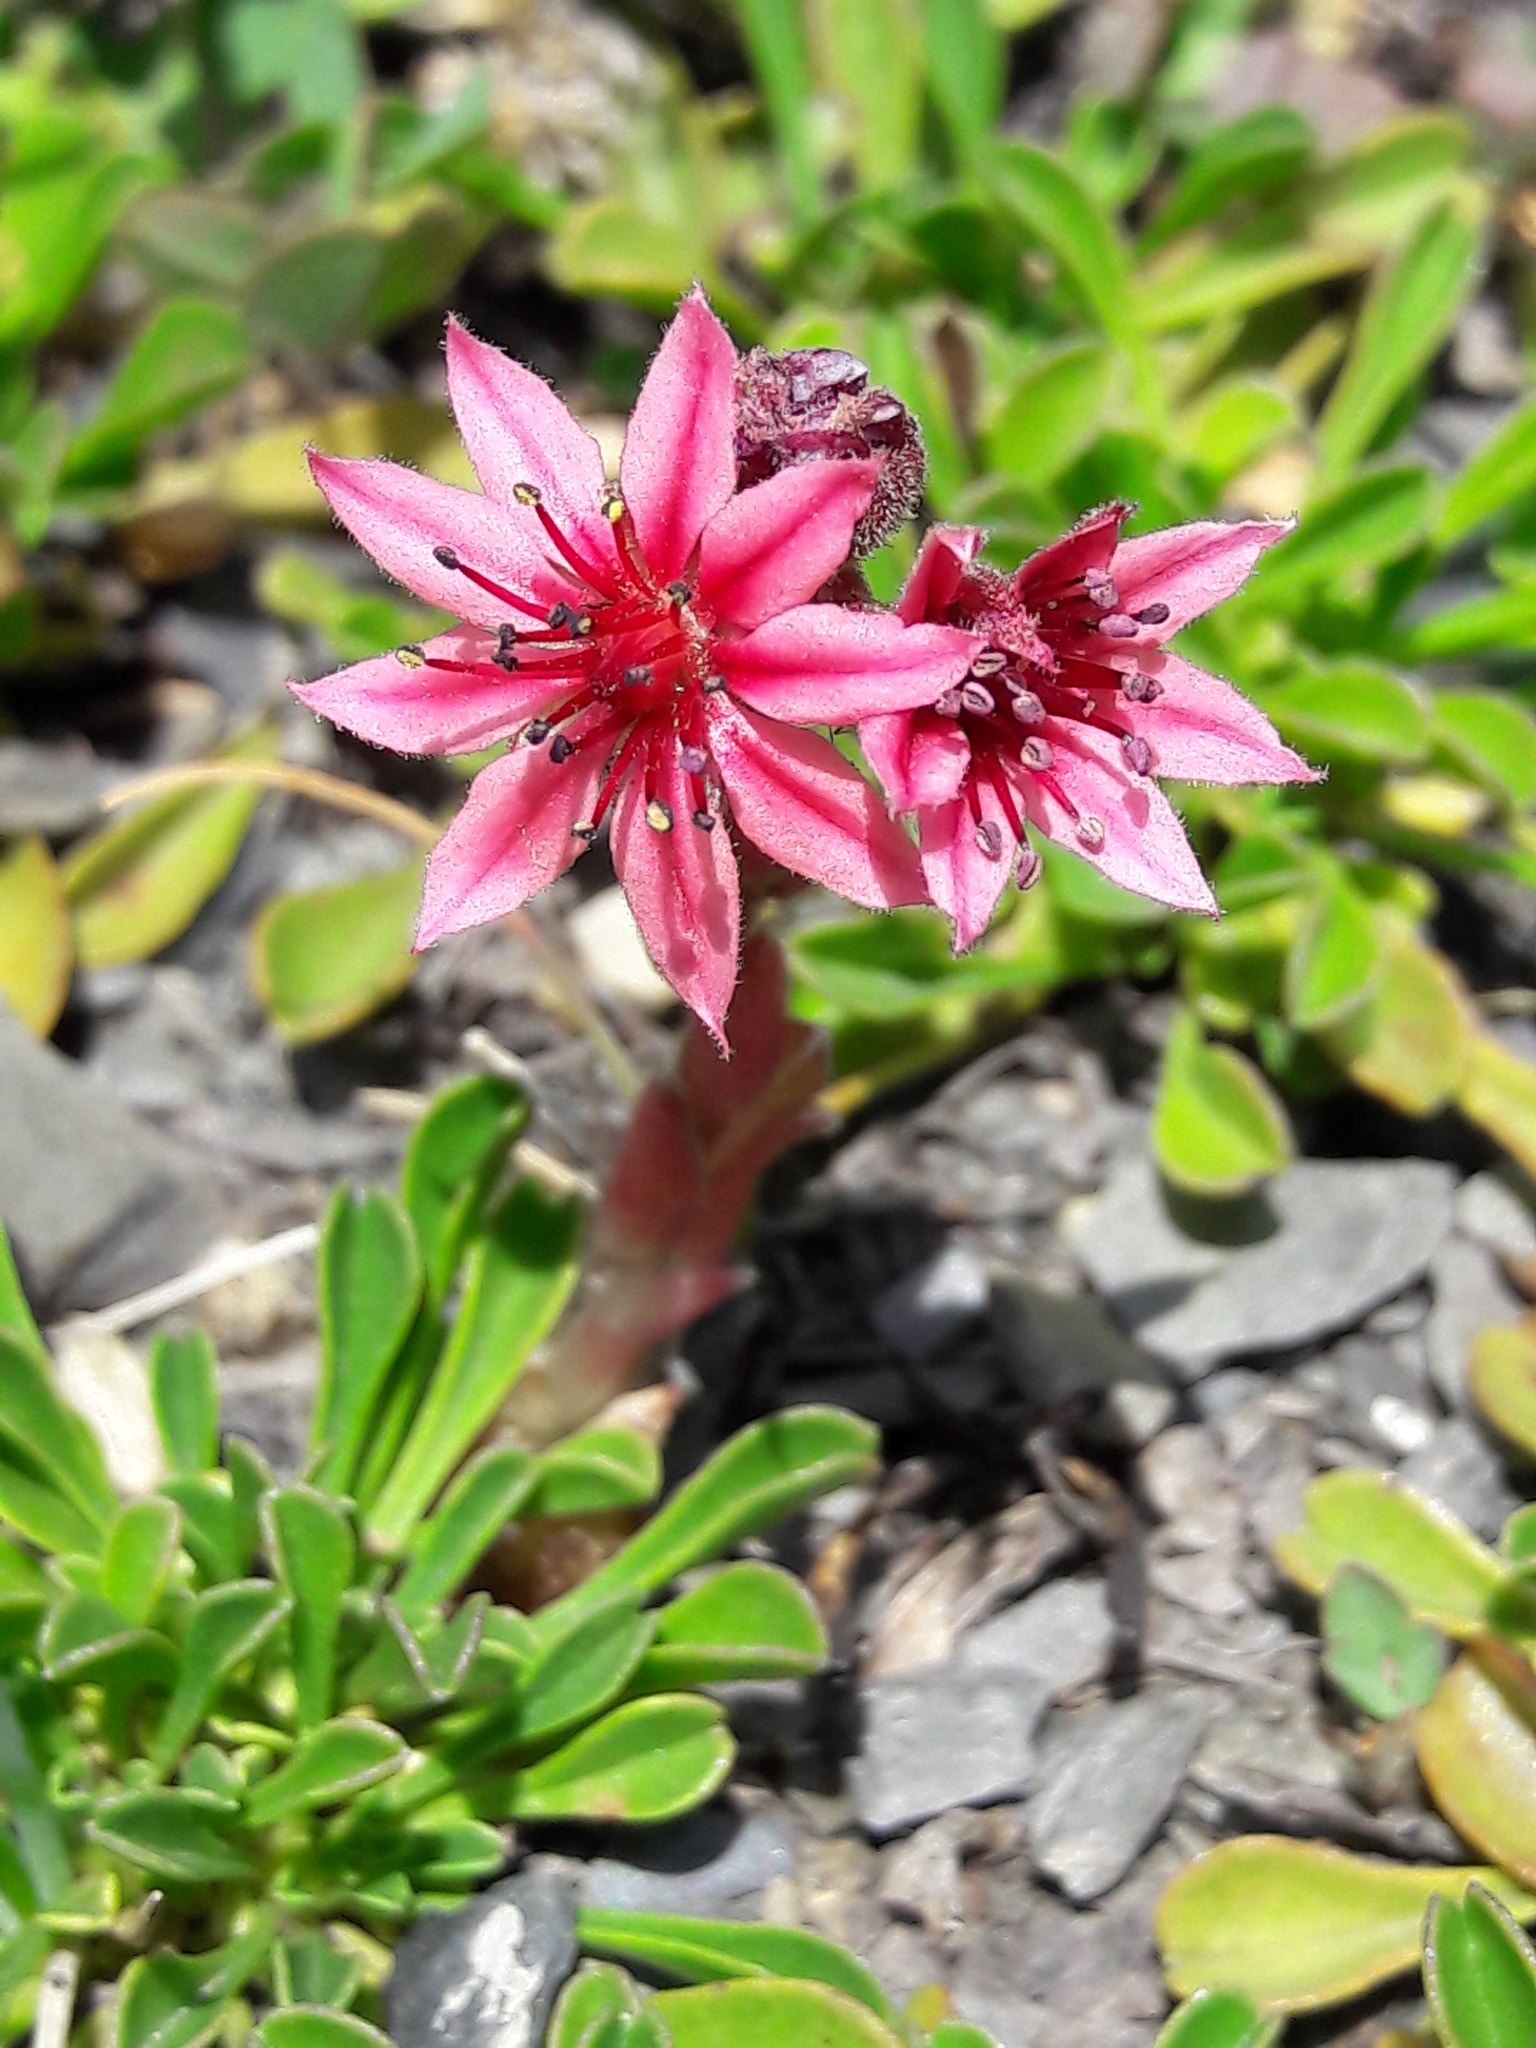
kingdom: Plantae
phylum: Tracheophyta
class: Magnoliopsida
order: Saxifragales
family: Crassulaceae
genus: Sempervivum
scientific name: Sempervivum arachnoideum
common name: Cobweb house-leek
